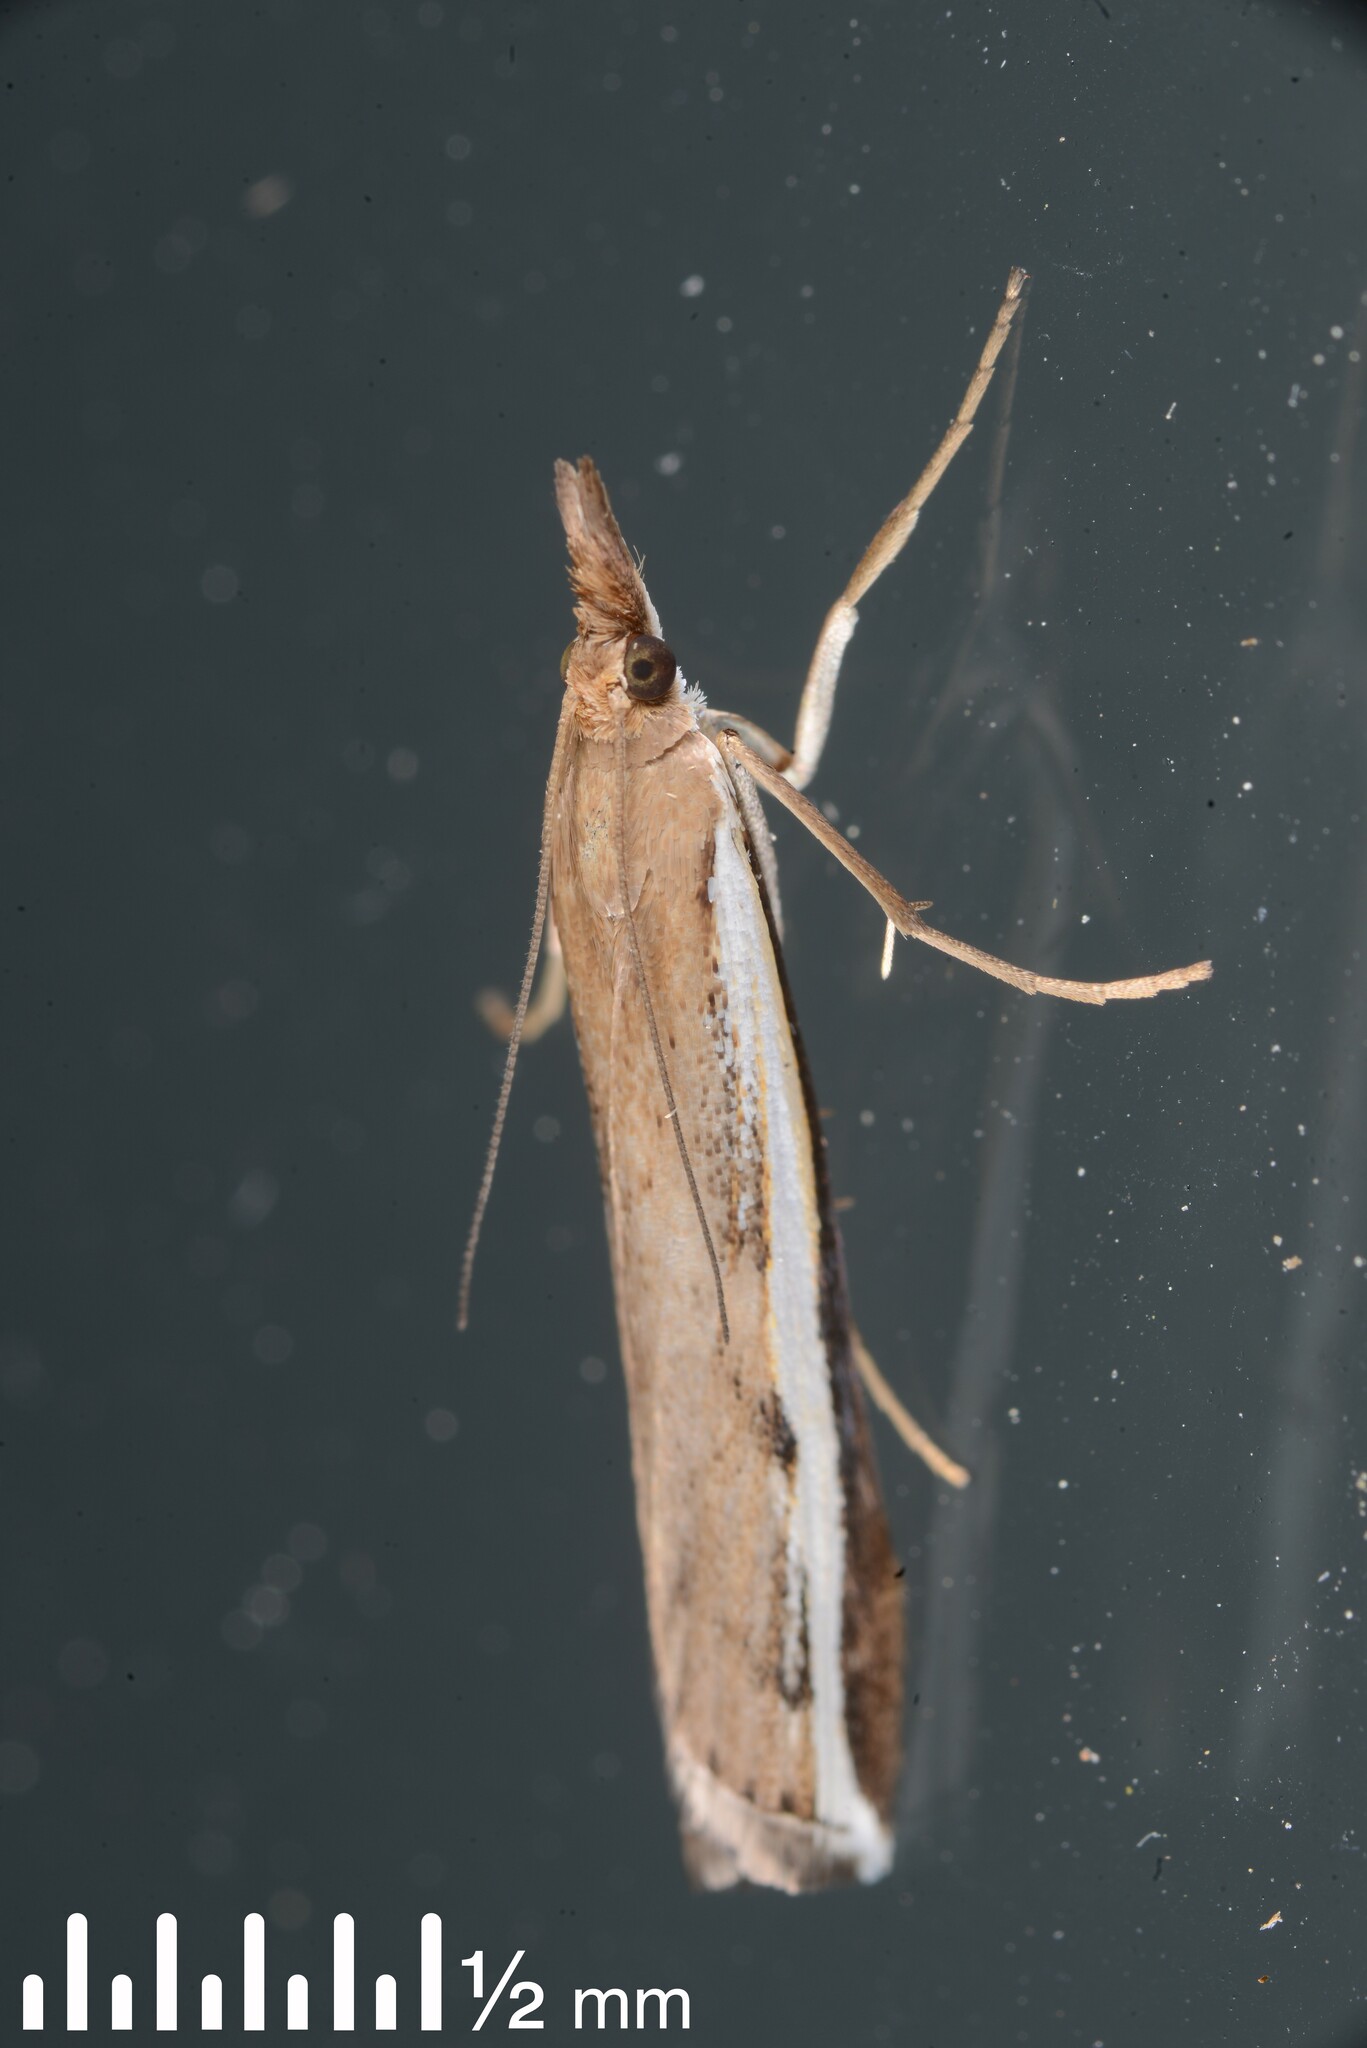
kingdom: Animalia
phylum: Arthropoda
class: Insecta
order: Lepidoptera
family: Crambidae
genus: Orocrambus
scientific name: Orocrambus flexuosellus
